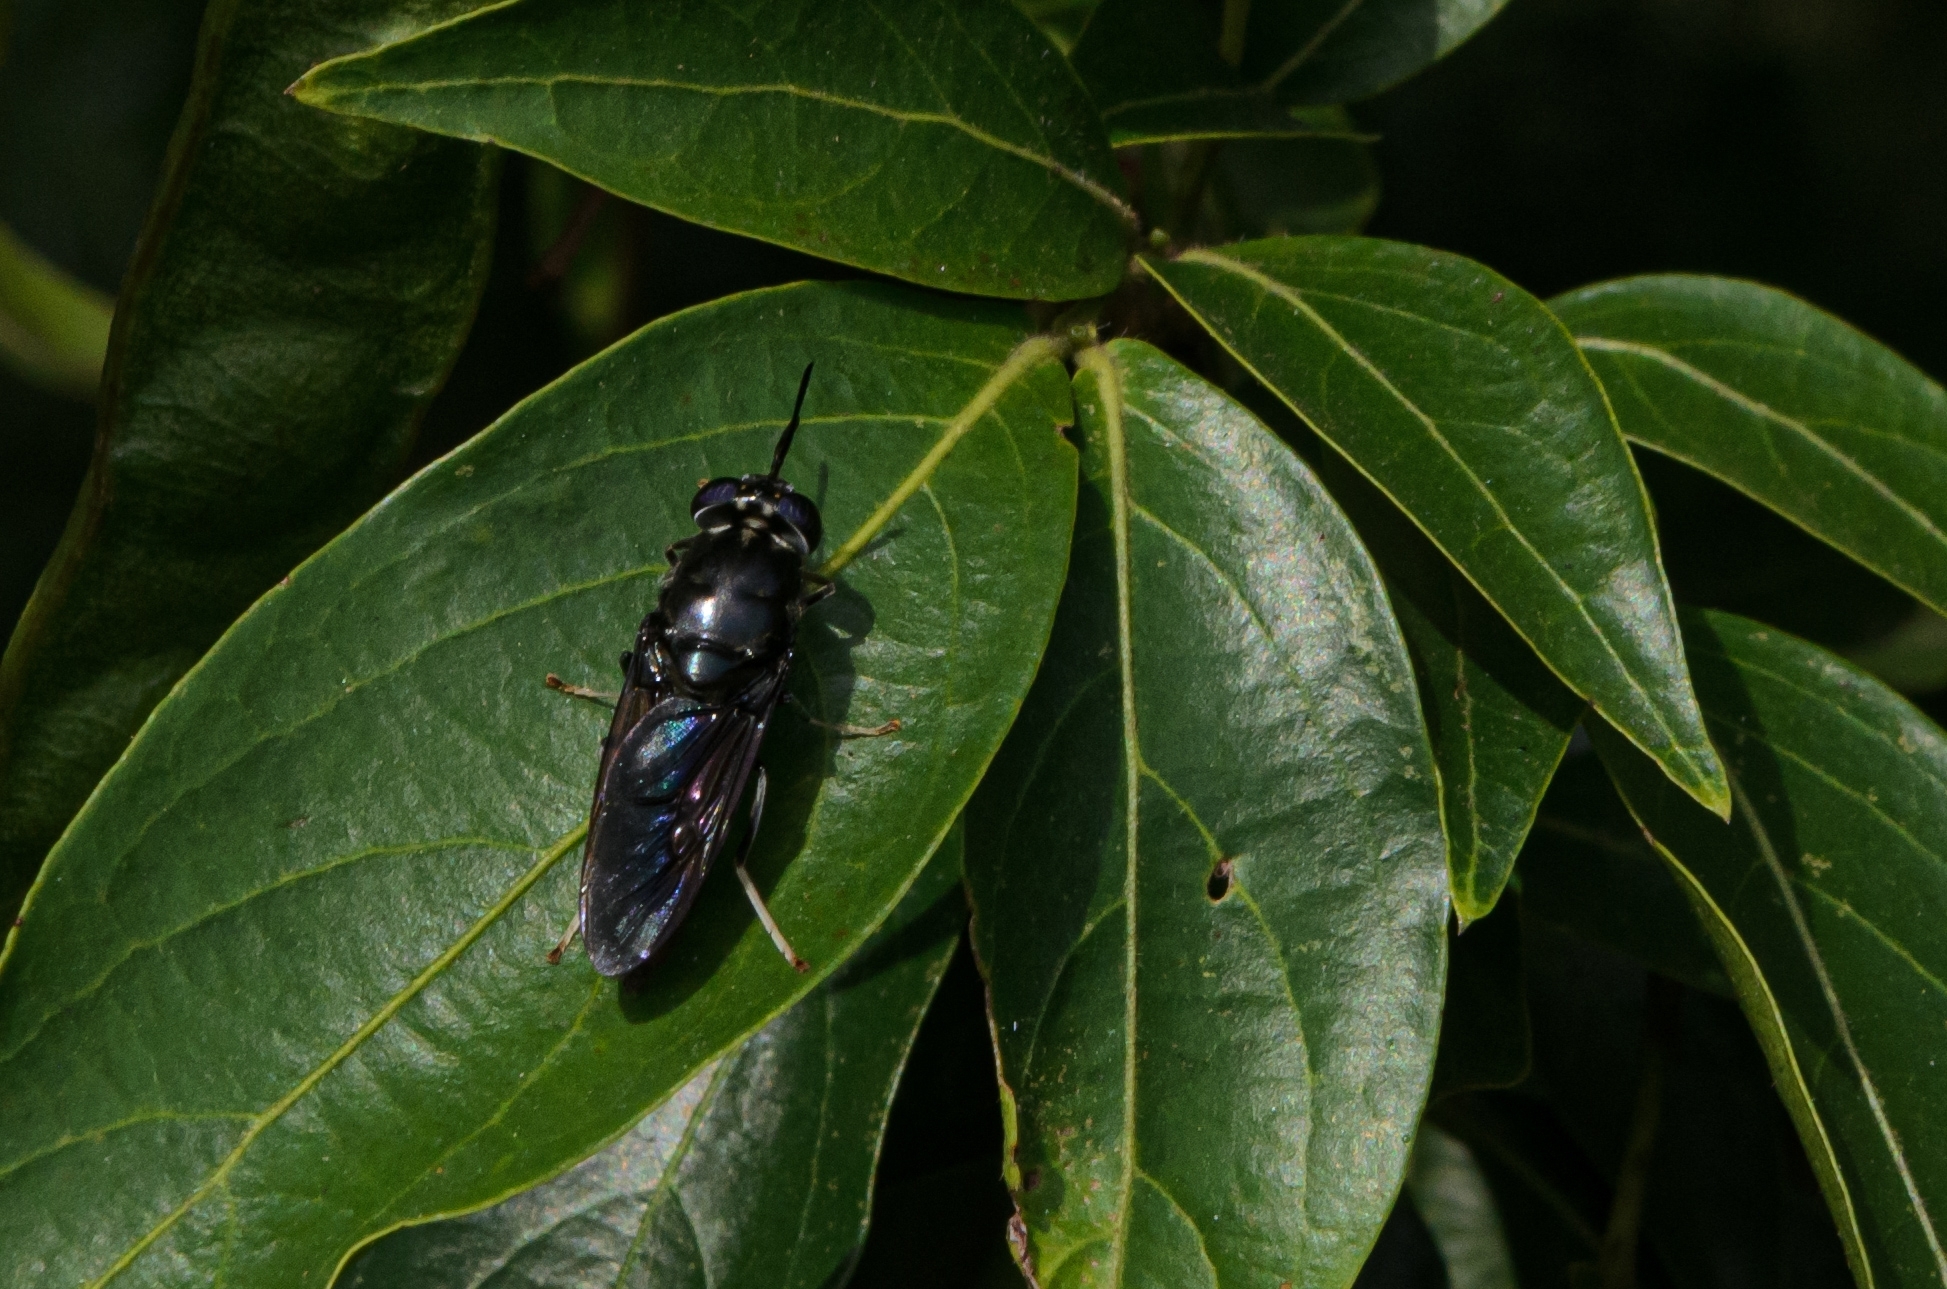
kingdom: Animalia
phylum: Arthropoda
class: Insecta
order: Diptera
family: Stratiomyidae
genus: Hermetia
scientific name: Hermetia illucens
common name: Black soldier fly
